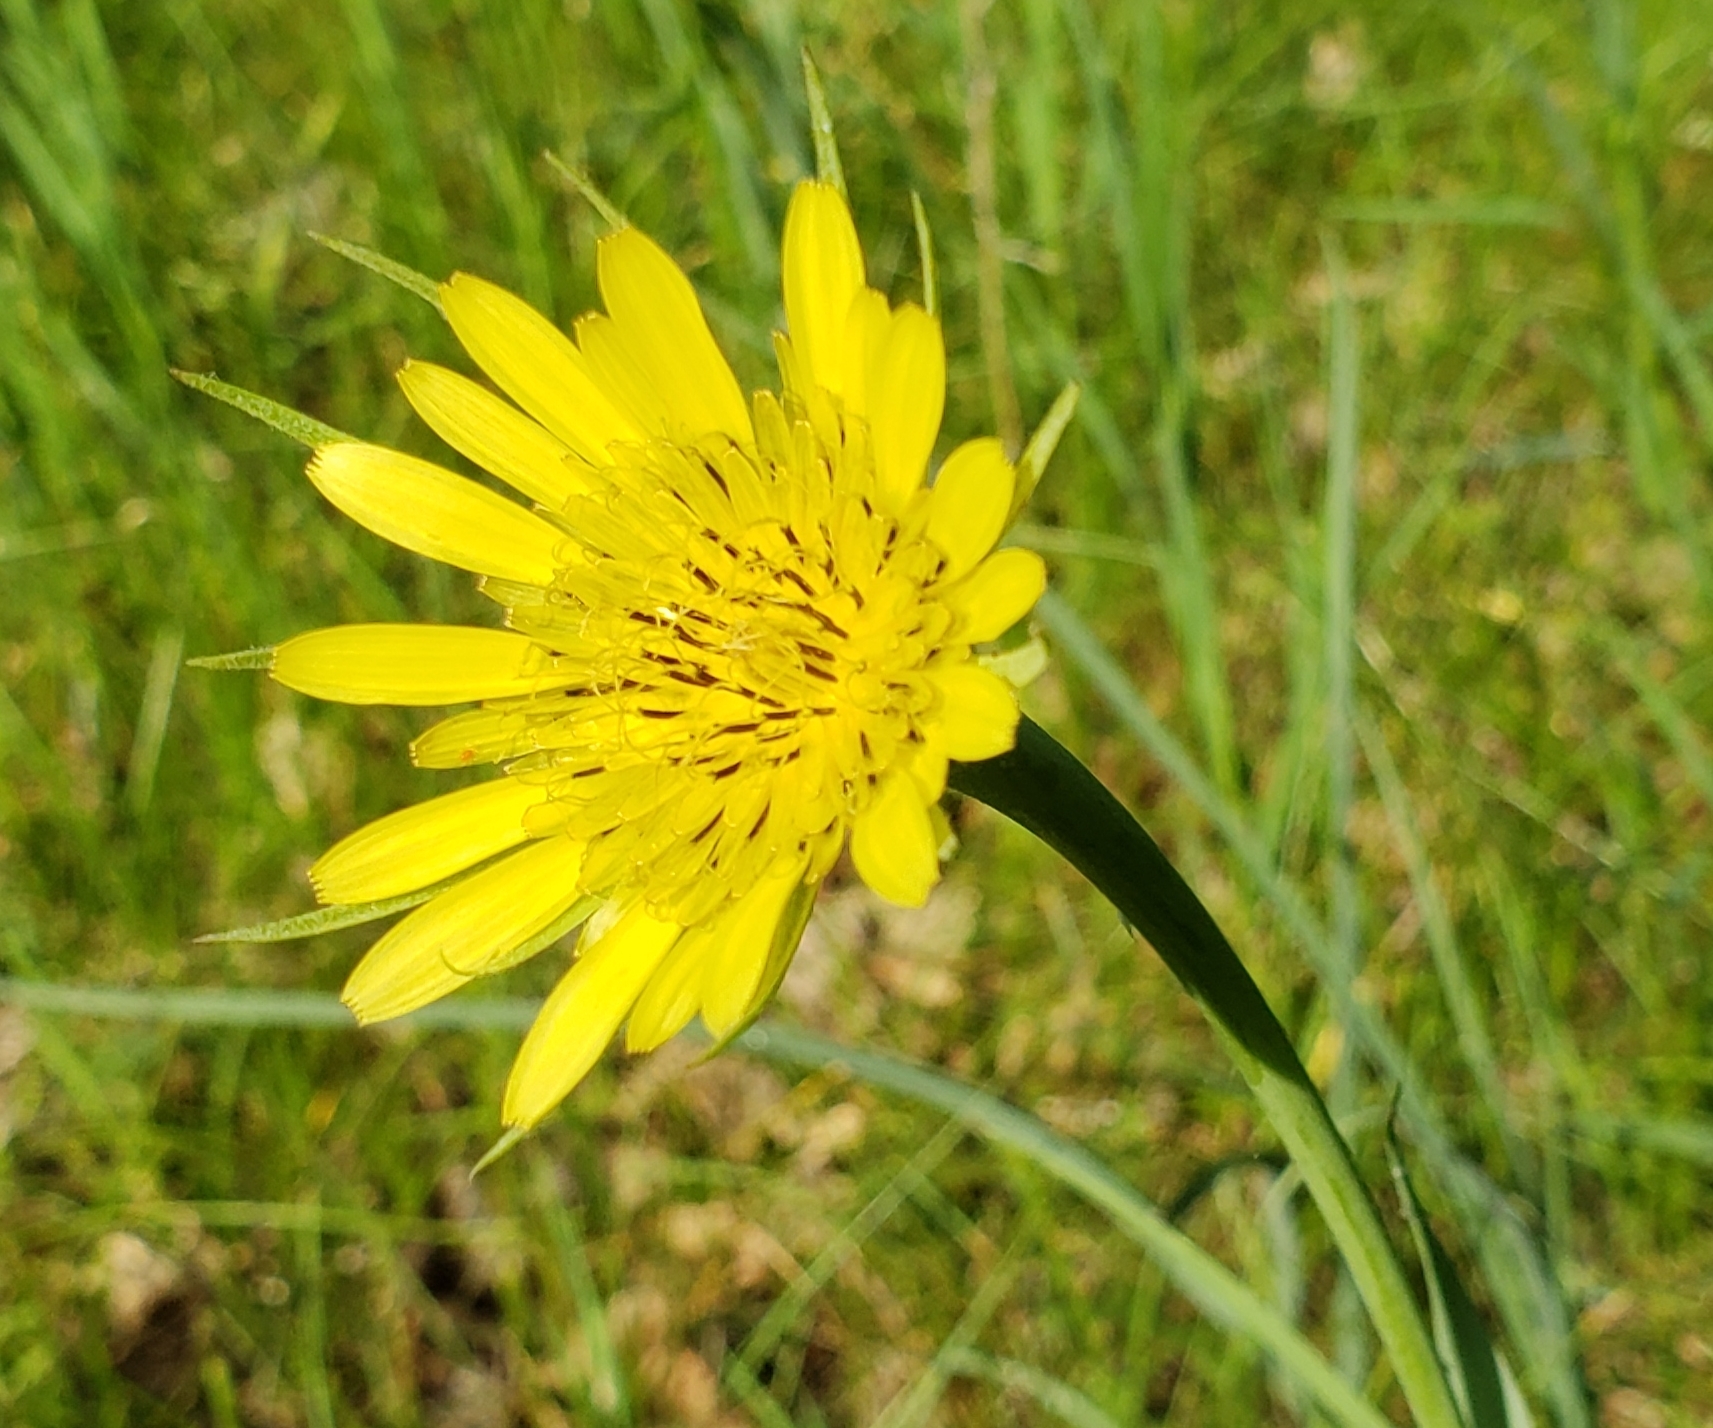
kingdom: Plantae
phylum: Tracheophyta
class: Magnoliopsida
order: Asterales
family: Asteraceae
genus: Tragopogon
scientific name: Tragopogon dubius
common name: Yellow salsify
